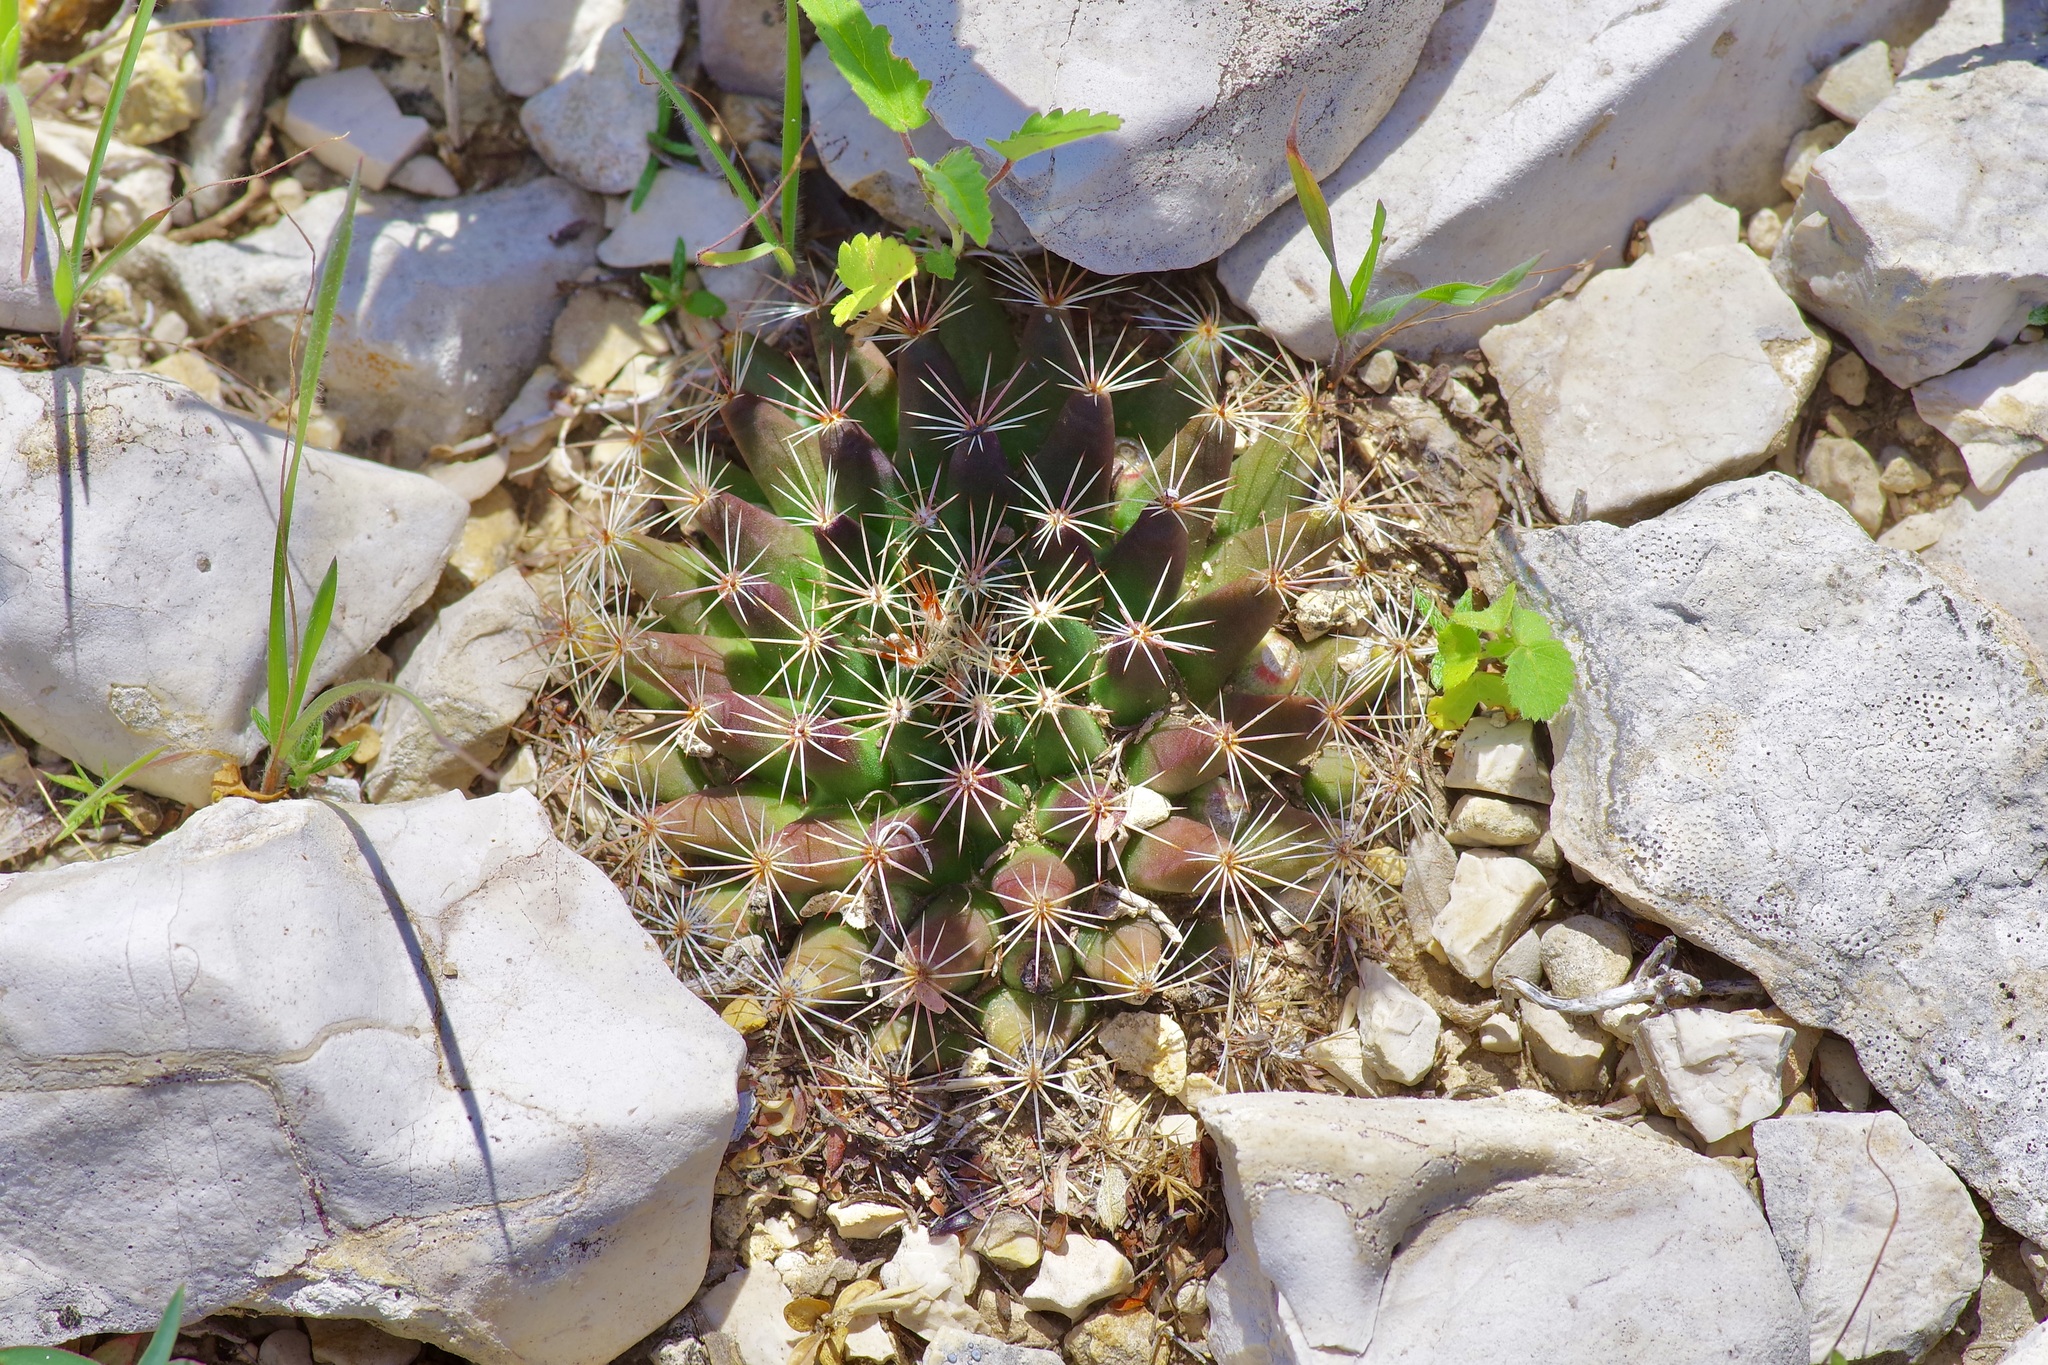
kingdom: Plantae
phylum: Tracheophyta
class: Magnoliopsida
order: Caryophyllales
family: Cactaceae
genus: Mammillaria
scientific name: Mammillaria heyderi
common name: Little nipple cactus
